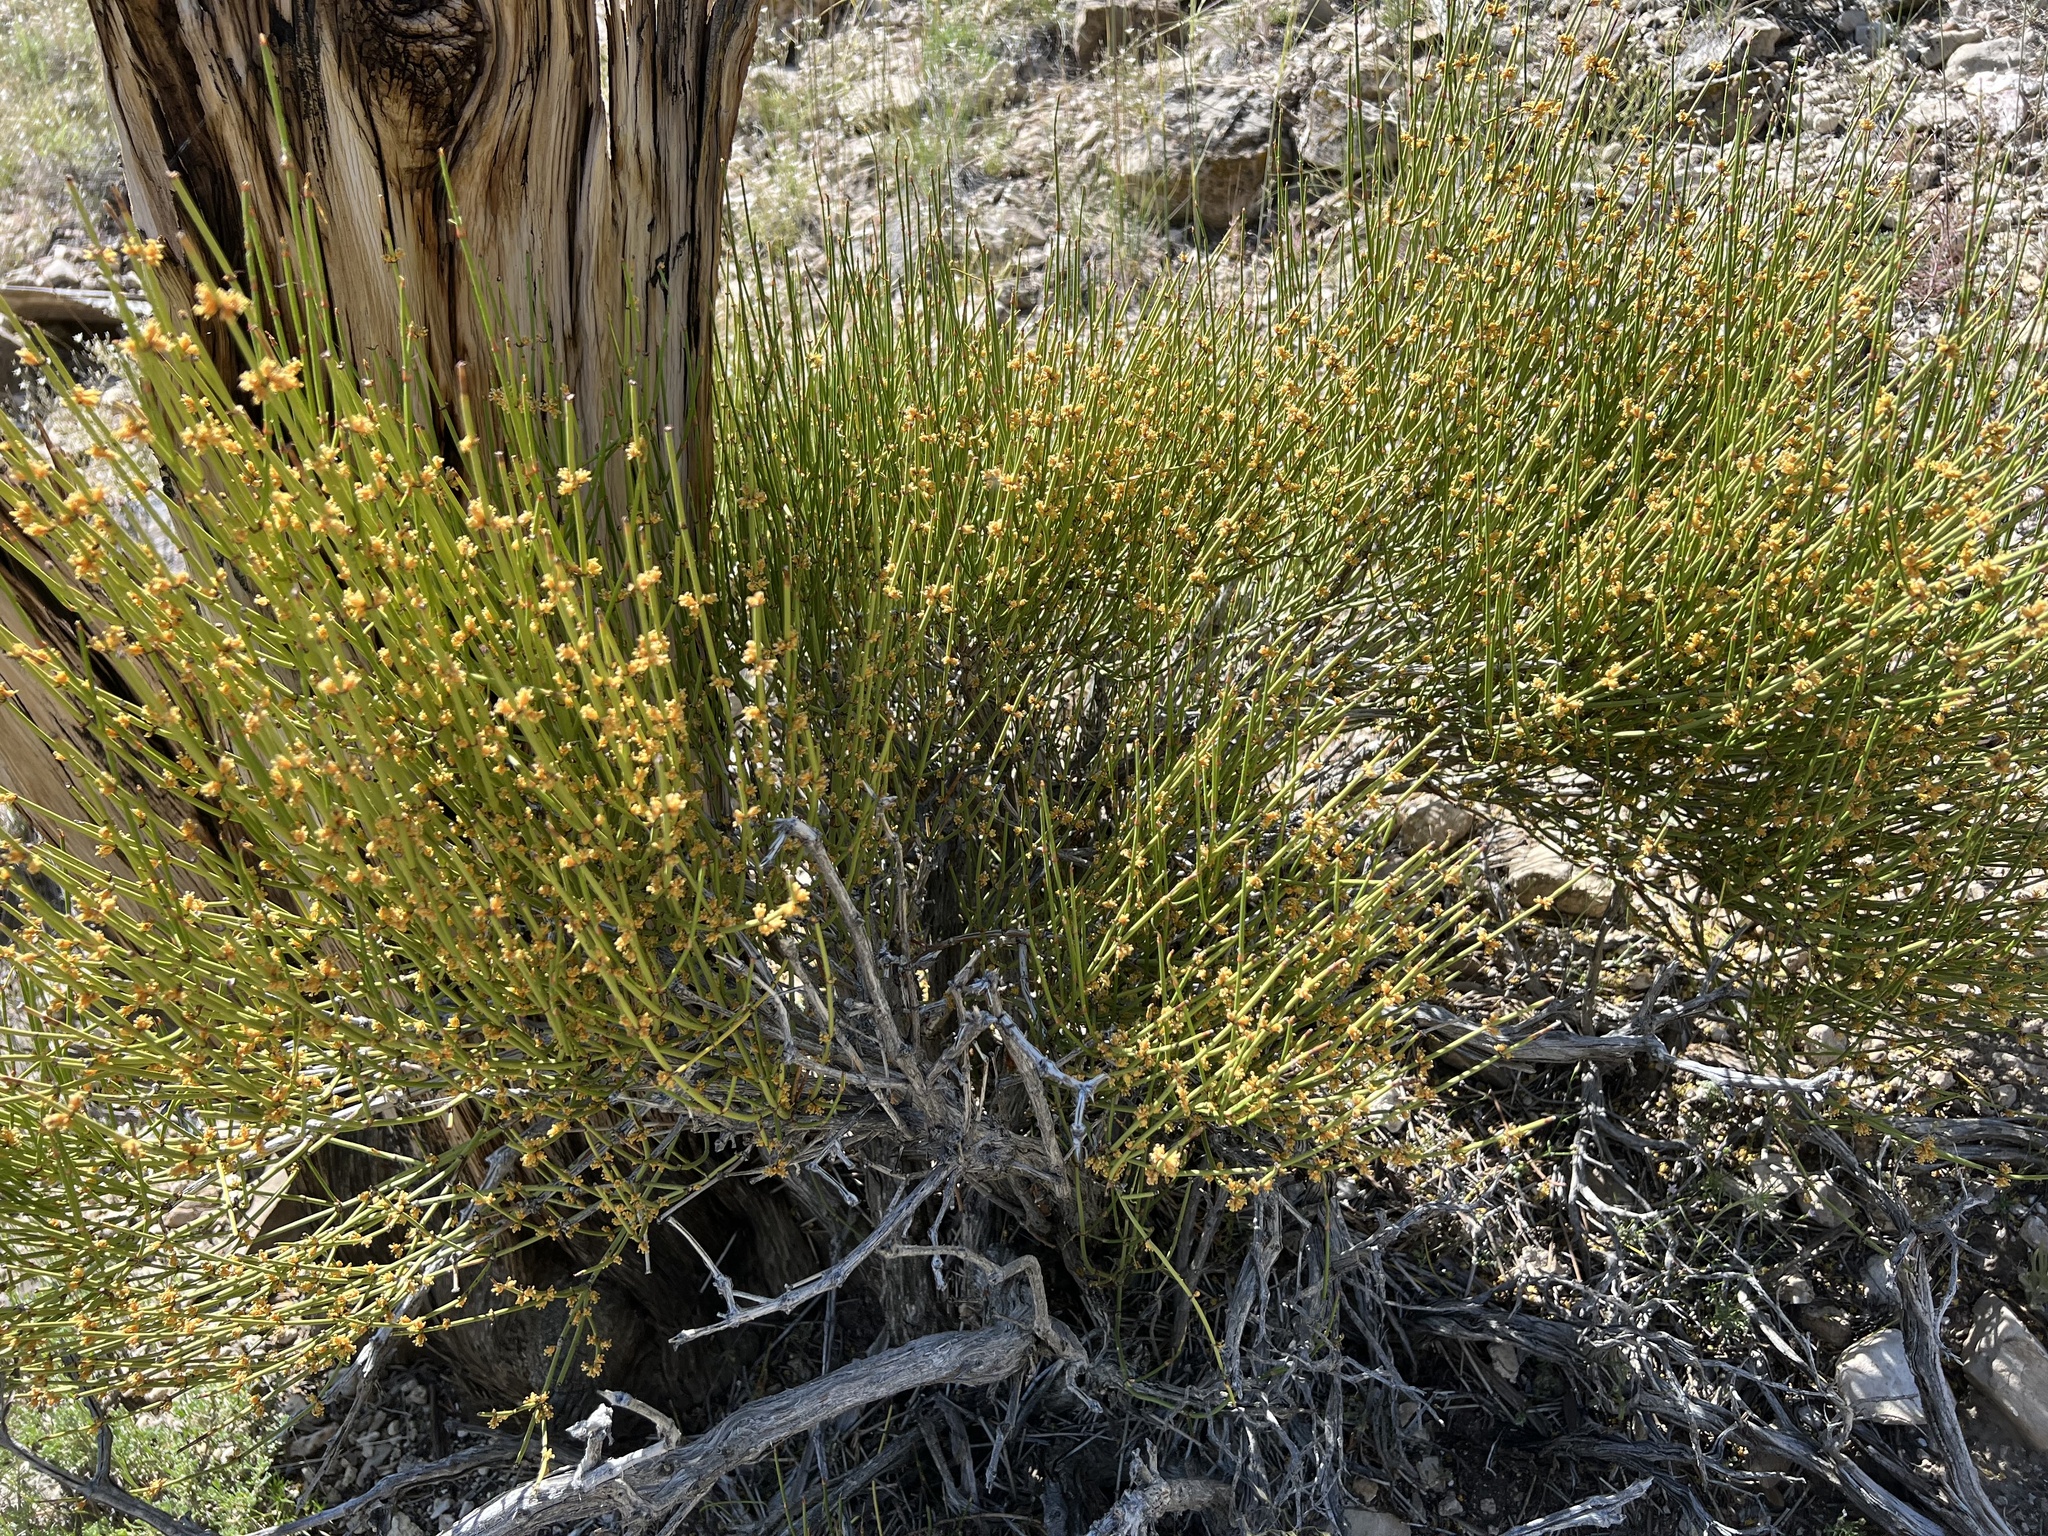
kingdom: Plantae
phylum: Tracheophyta
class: Gnetopsida
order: Ephedrales
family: Ephedraceae
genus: Ephedra
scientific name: Ephedra viridis
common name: Green ephedra
